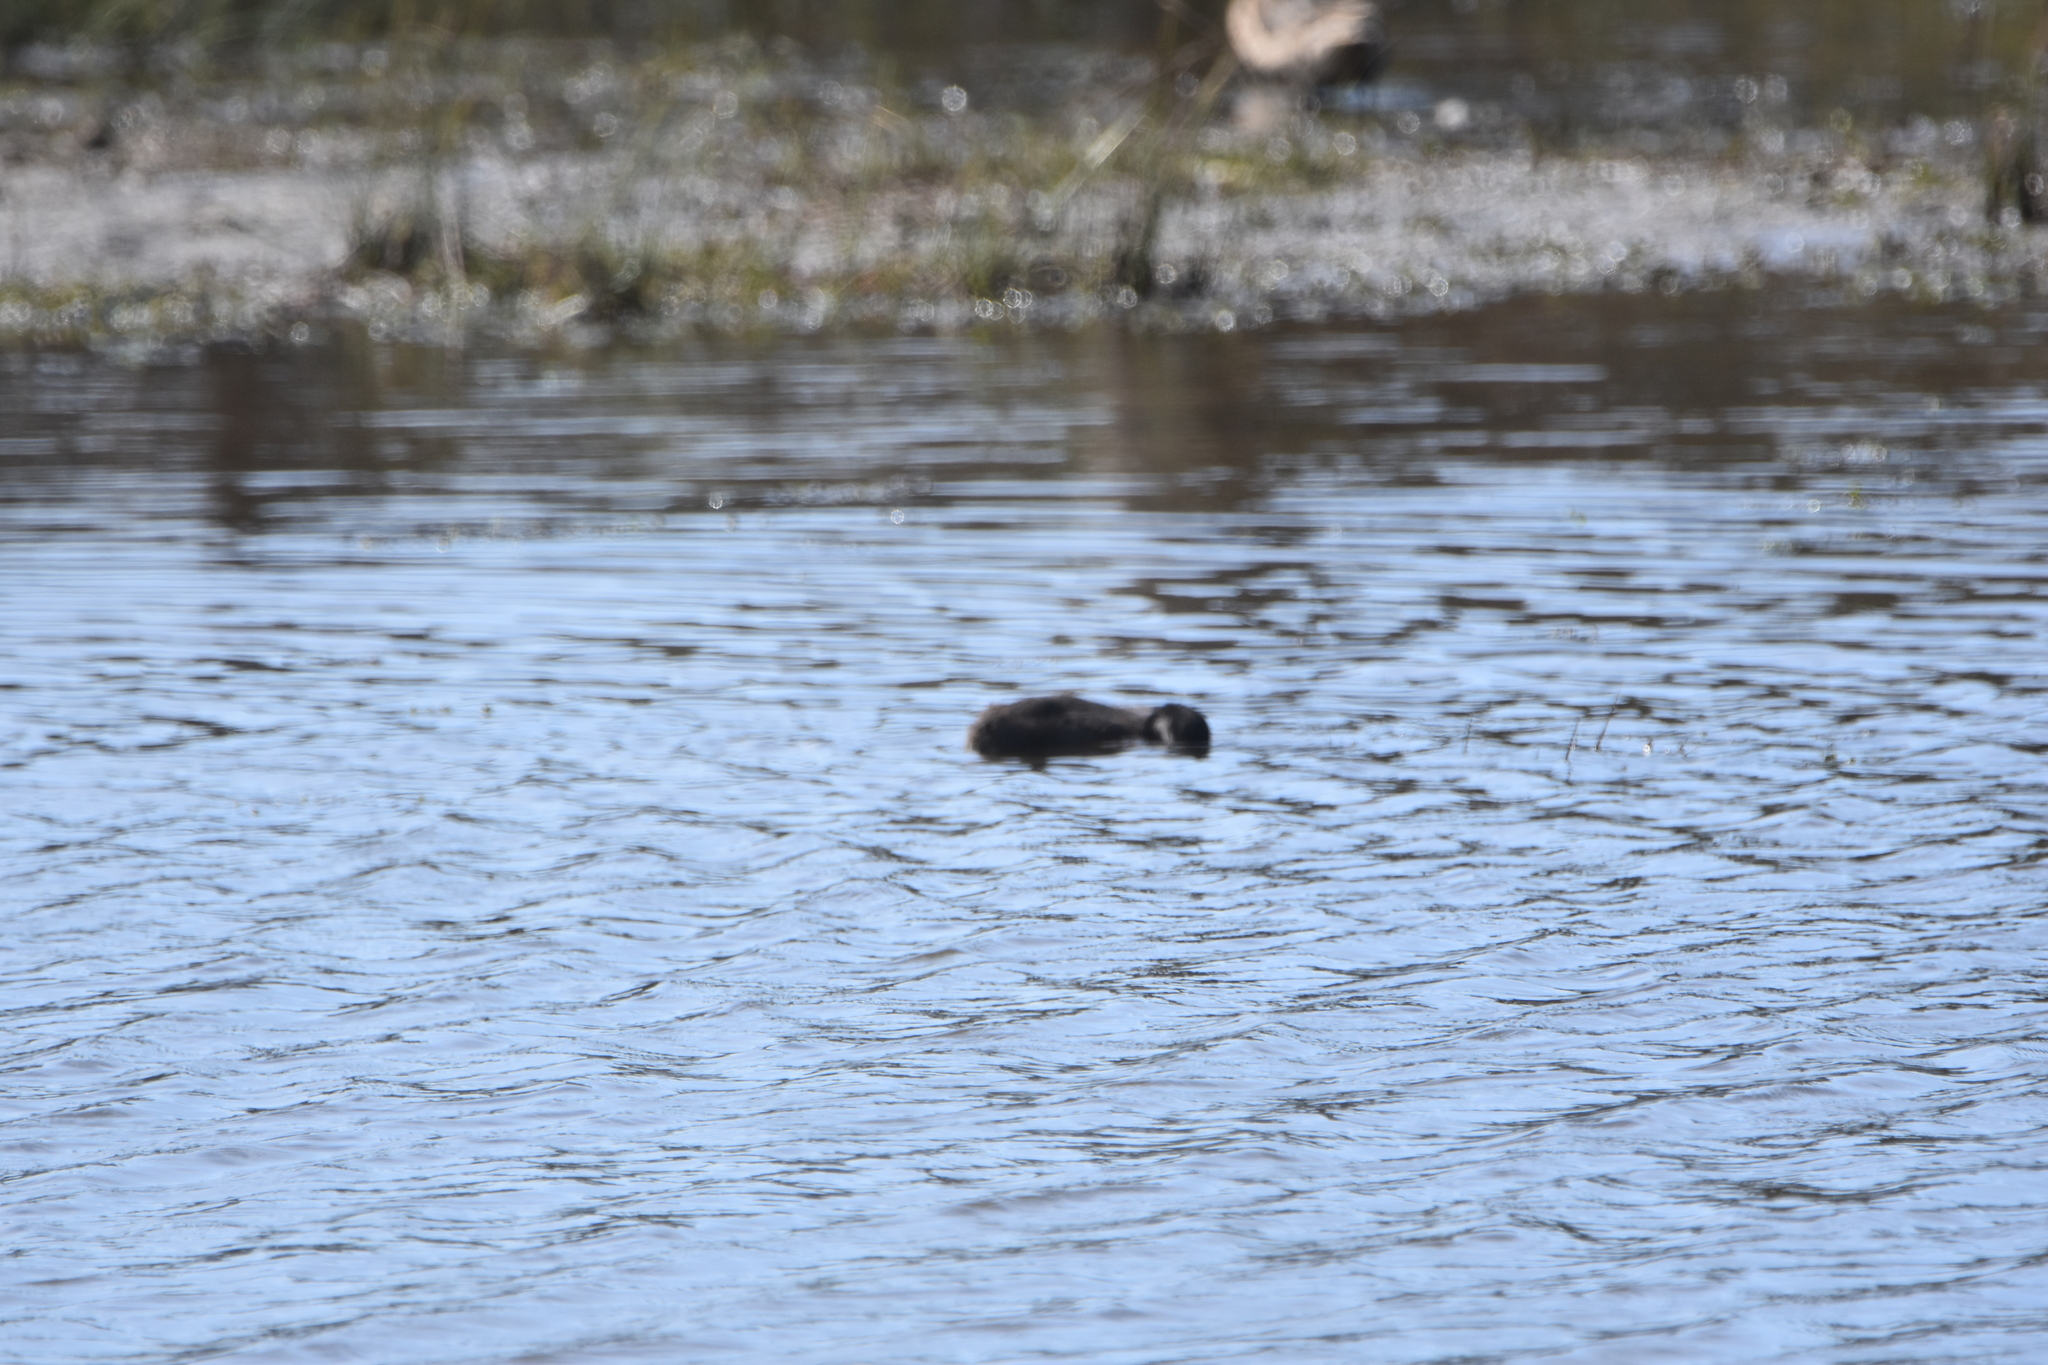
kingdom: Animalia
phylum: Chordata
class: Aves
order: Gruiformes
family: Rallidae
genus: Fulica
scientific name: Fulica armillata
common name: Red-gartered coot
